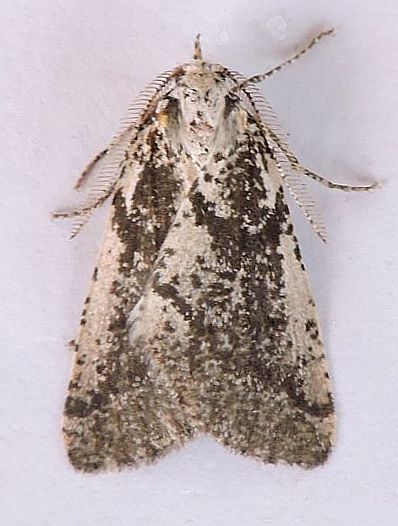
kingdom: Animalia
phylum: Arthropoda
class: Insecta
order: Lepidoptera
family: Geometridae
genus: Eucaterva
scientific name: Eucaterva bonniwelli
